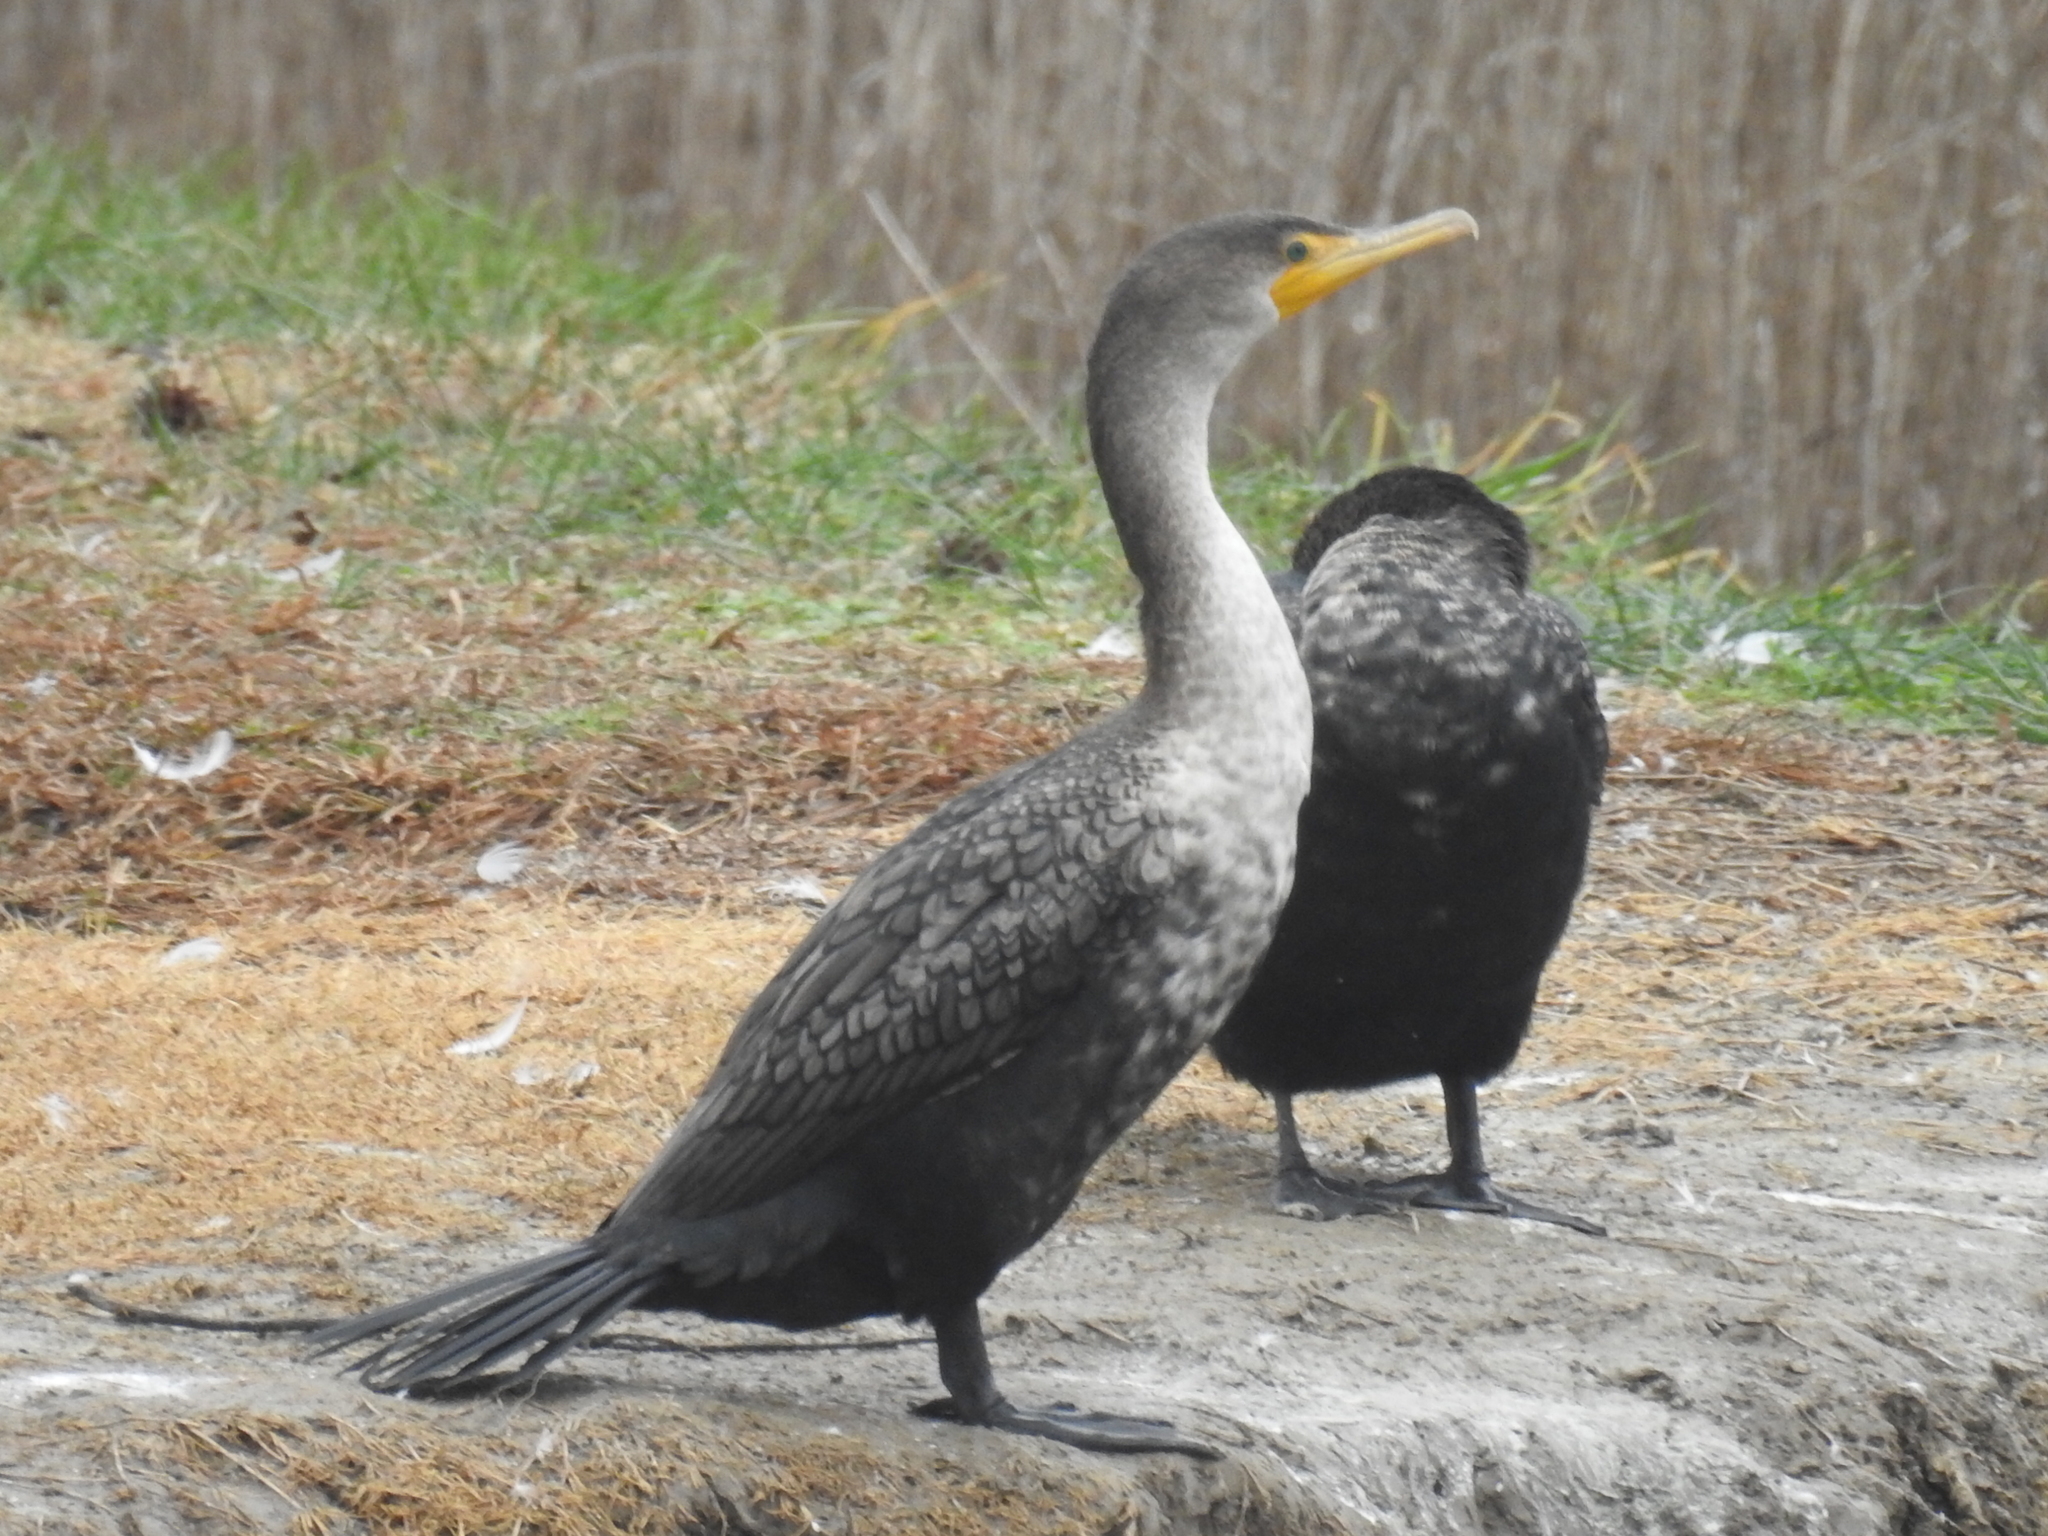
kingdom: Animalia
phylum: Chordata
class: Aves
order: Suliformes
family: Phalacrocoracidae
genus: Phalacrocorax
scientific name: Phalacrocorax auritus
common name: Double-crested cormorant
